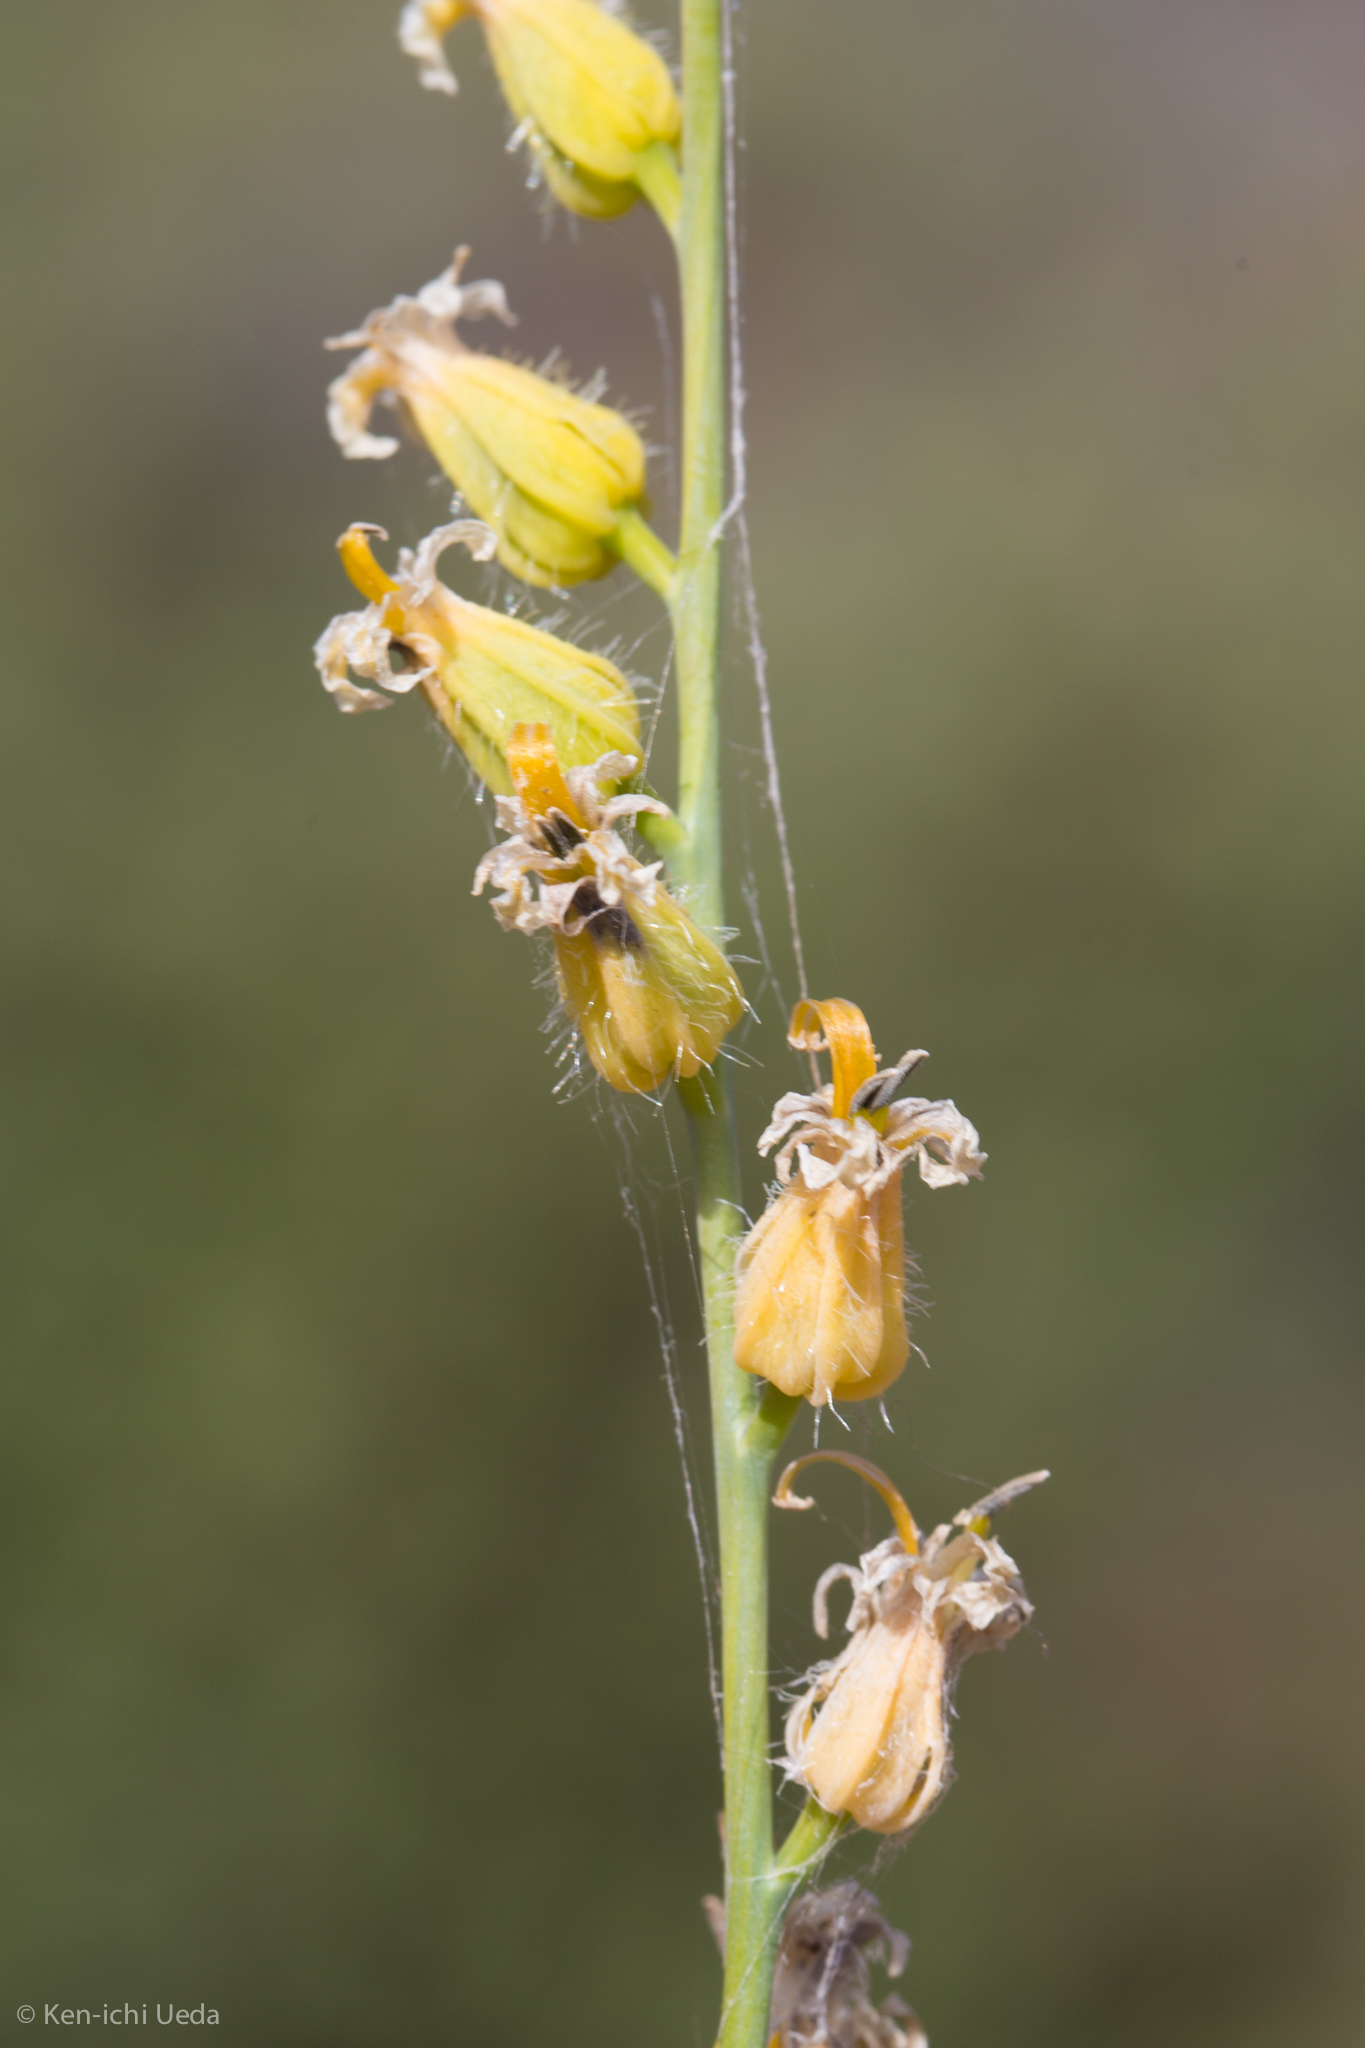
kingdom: Plantae
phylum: Tracheophyta
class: Magnoliopsida
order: Brassicales
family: Brassicaceae
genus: Streptanthus
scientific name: Streptanthus morrisonii
